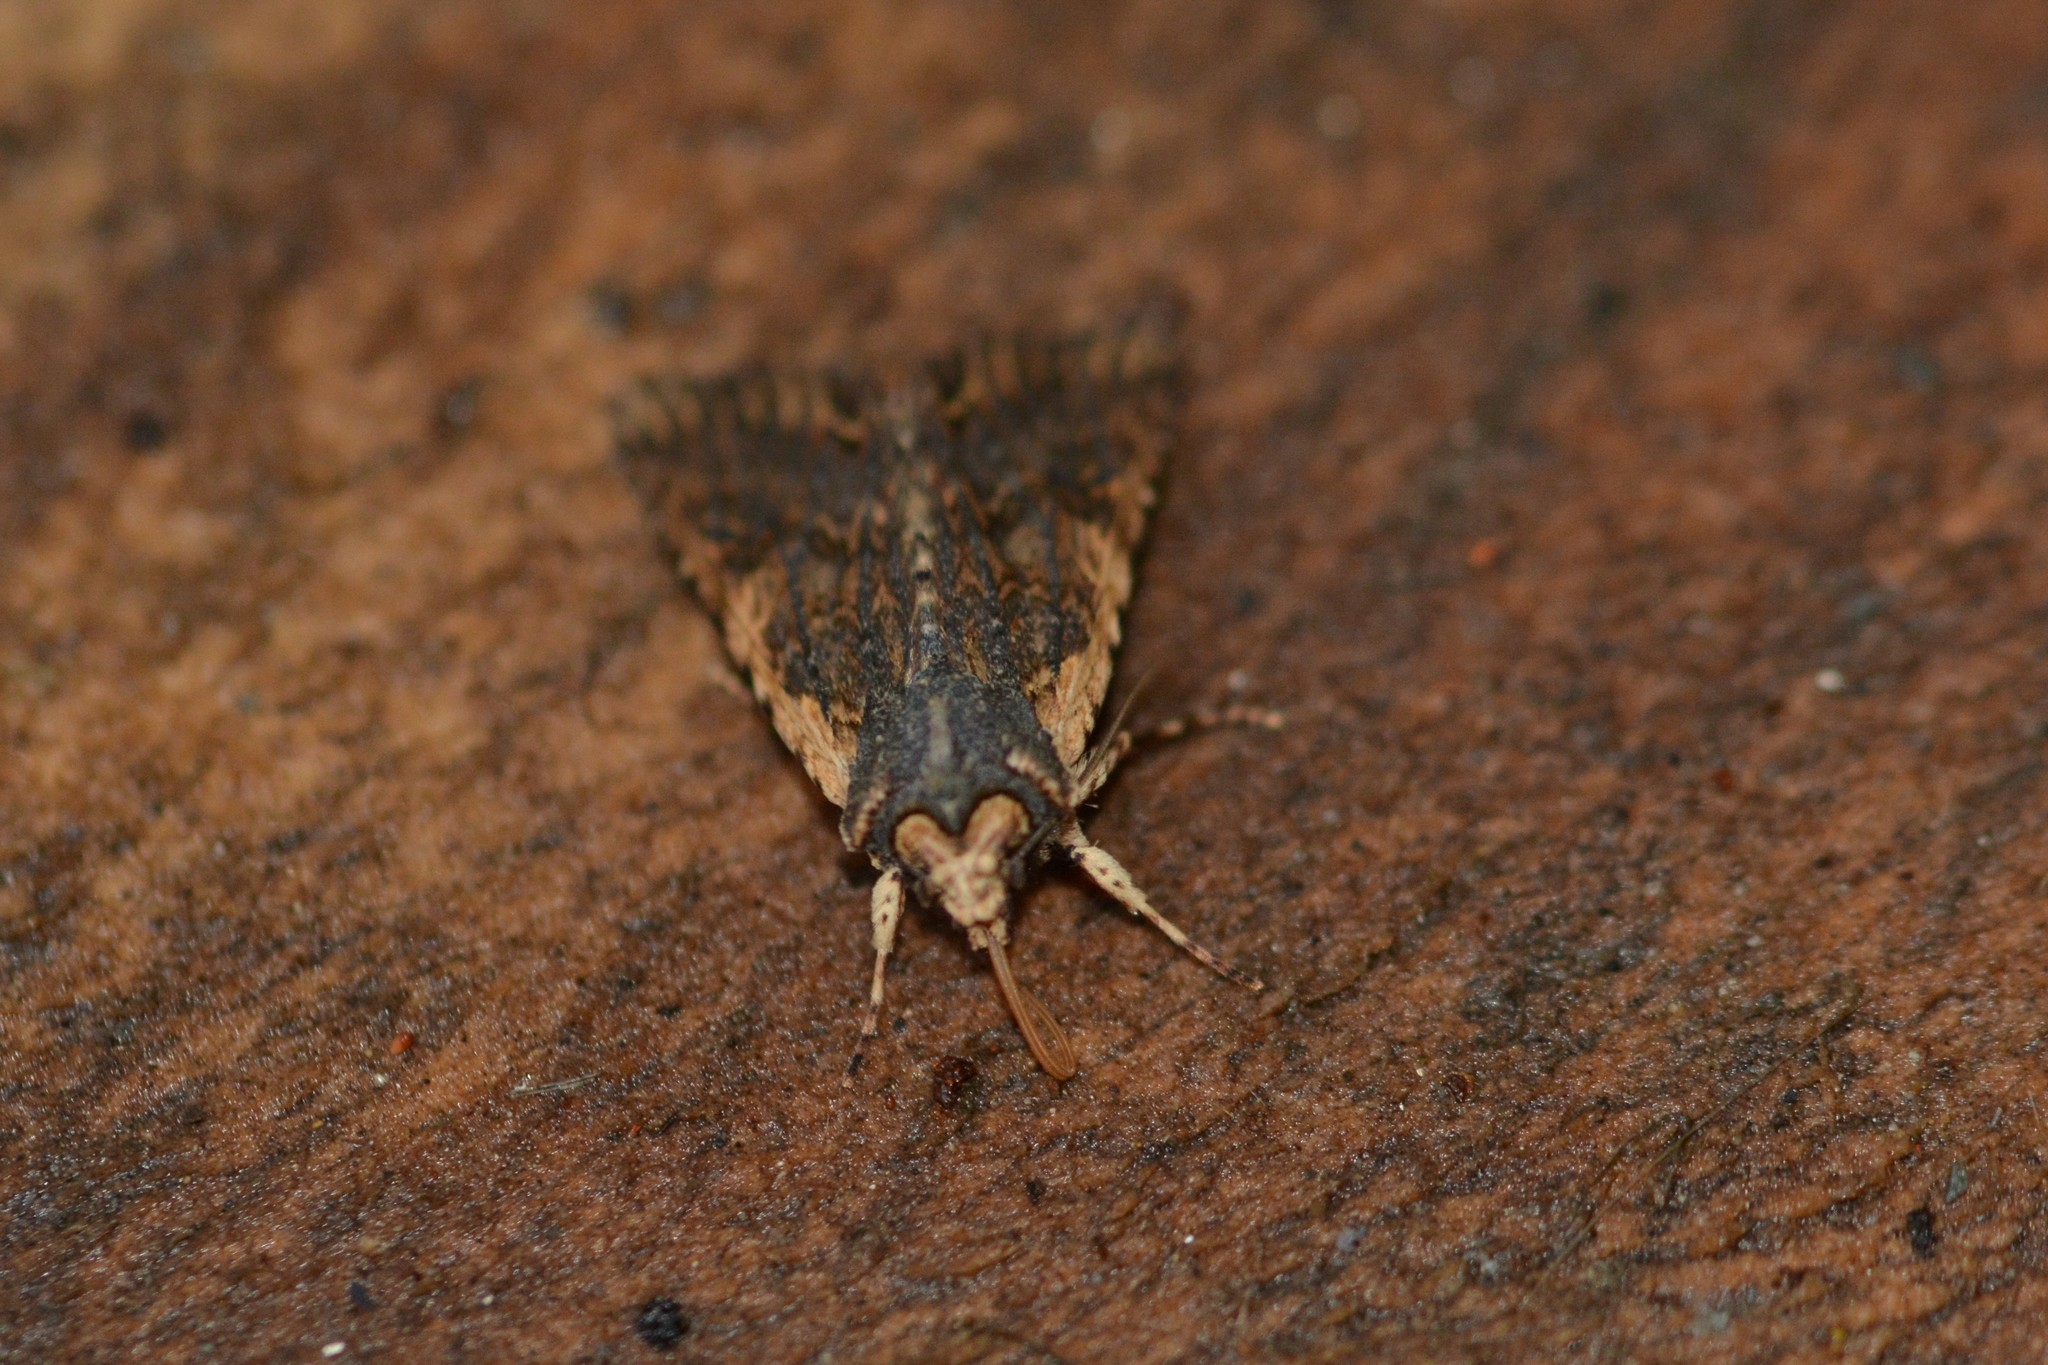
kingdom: Animalia
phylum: Arthropoda
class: Insecta
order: Lepidoptera
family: Noctuidae
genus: Meterana
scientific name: Meterana alcyone
